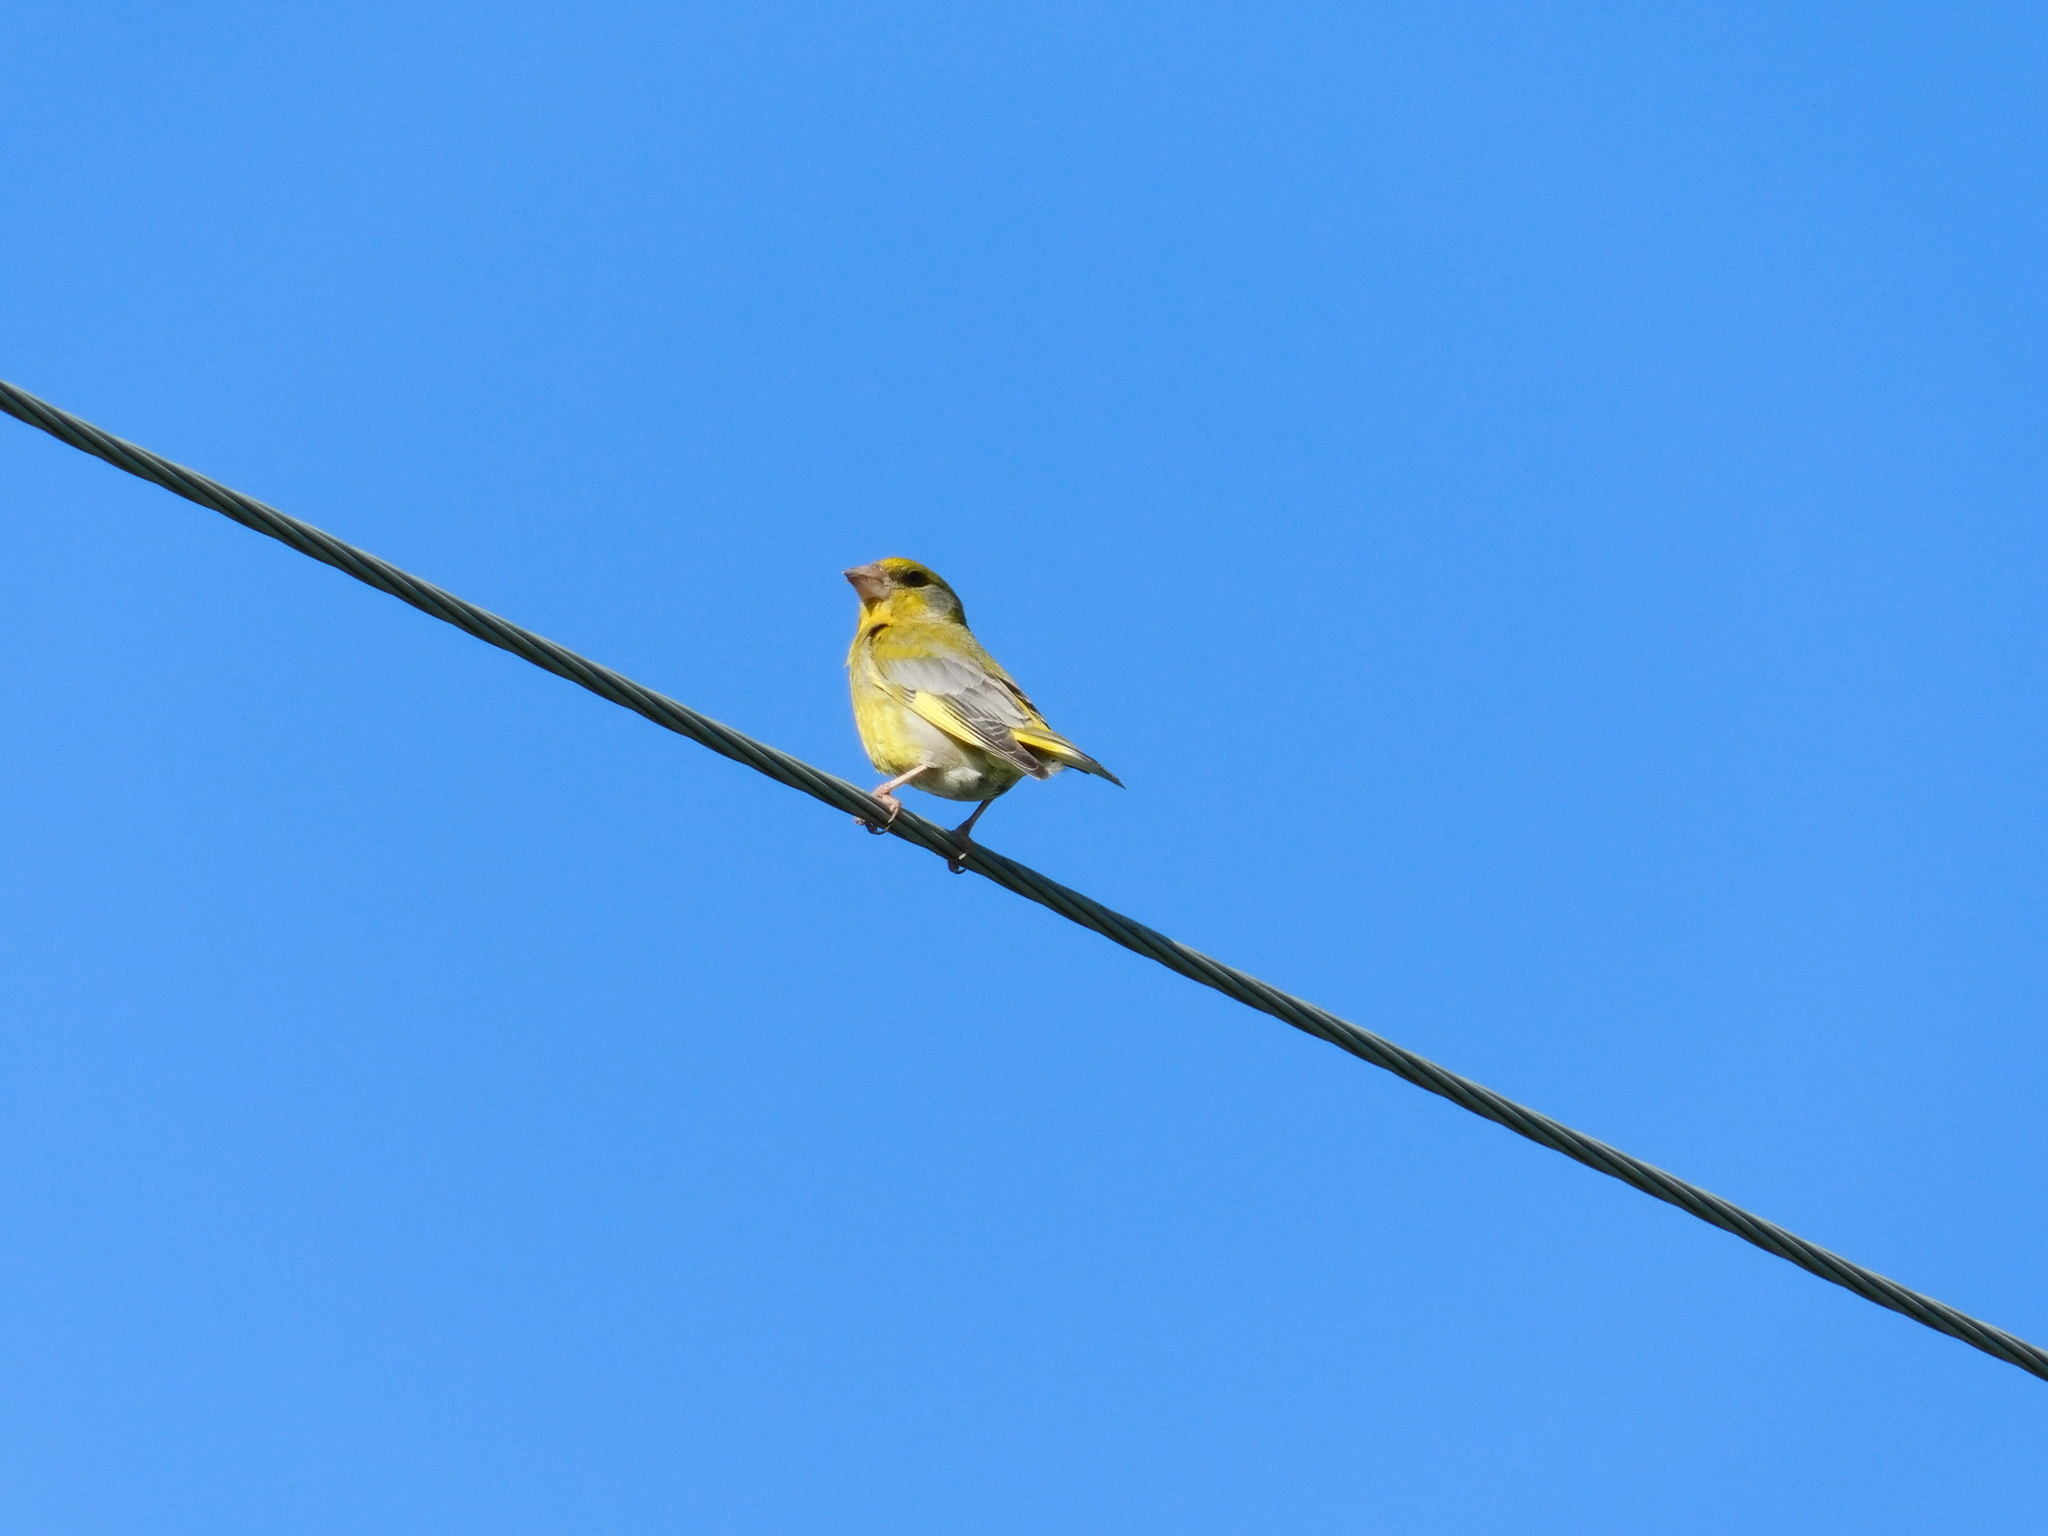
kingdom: Plantae
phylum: Tracheophyta
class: Liliopsida
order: Poales
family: Poaceae
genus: Chloris
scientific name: Chloris chloris
